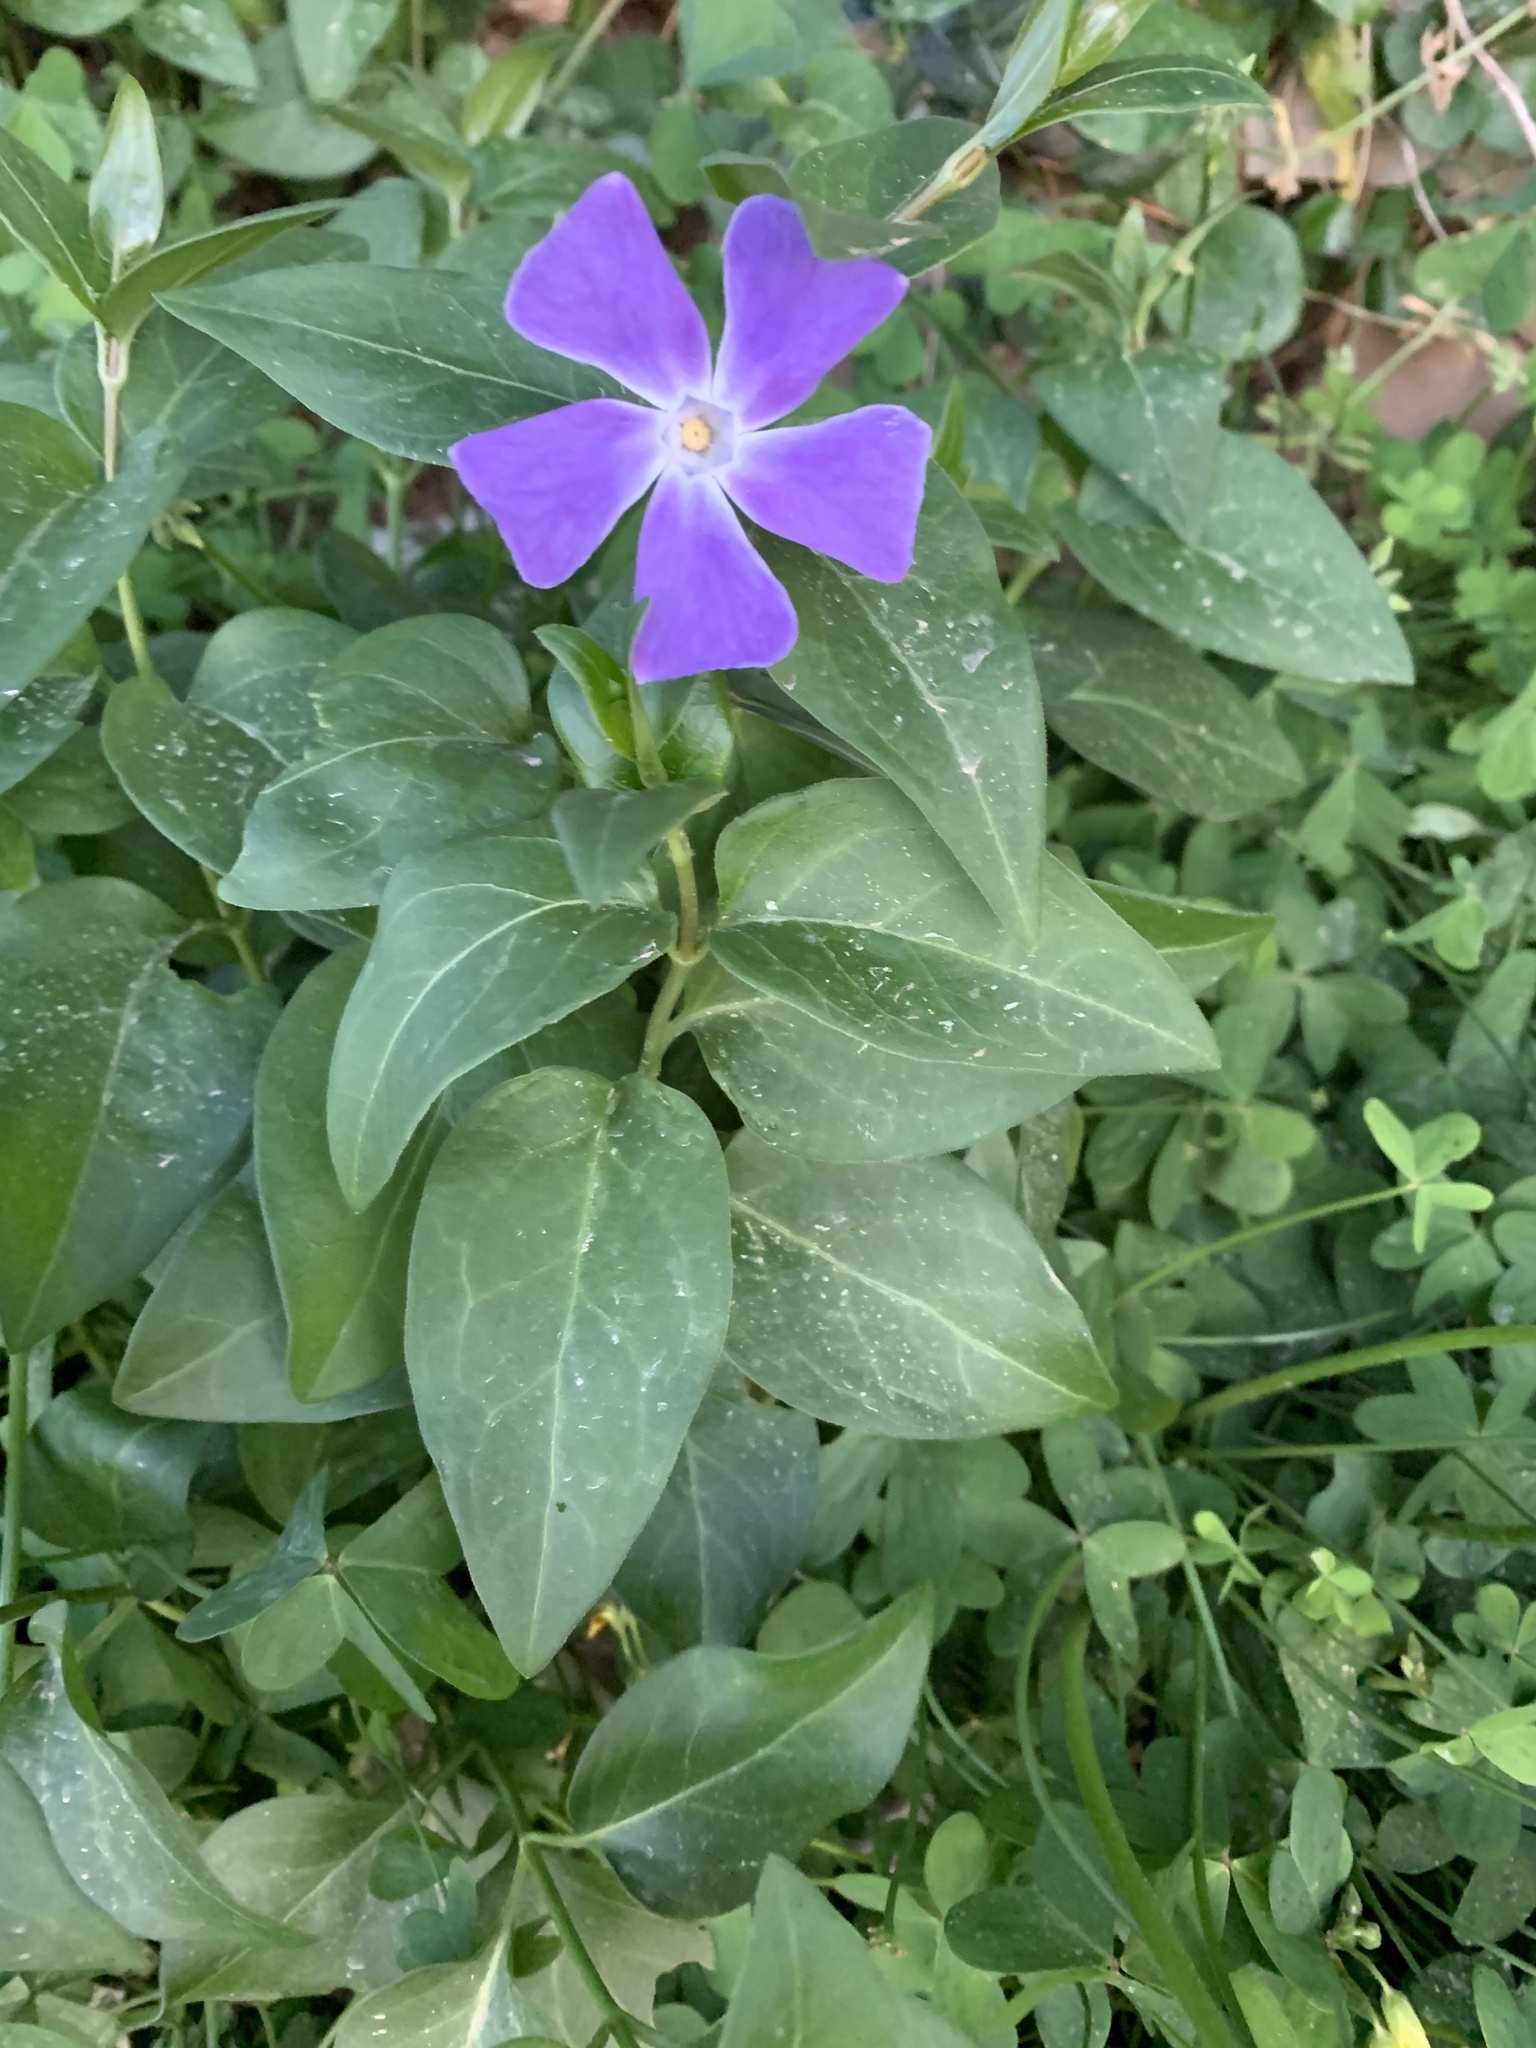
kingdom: Plantae
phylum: Tracheophyta
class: Magnoliopsida
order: Gentianales
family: Apocynaceae
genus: Vinca
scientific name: Vinca major
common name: Greater periwinkle
